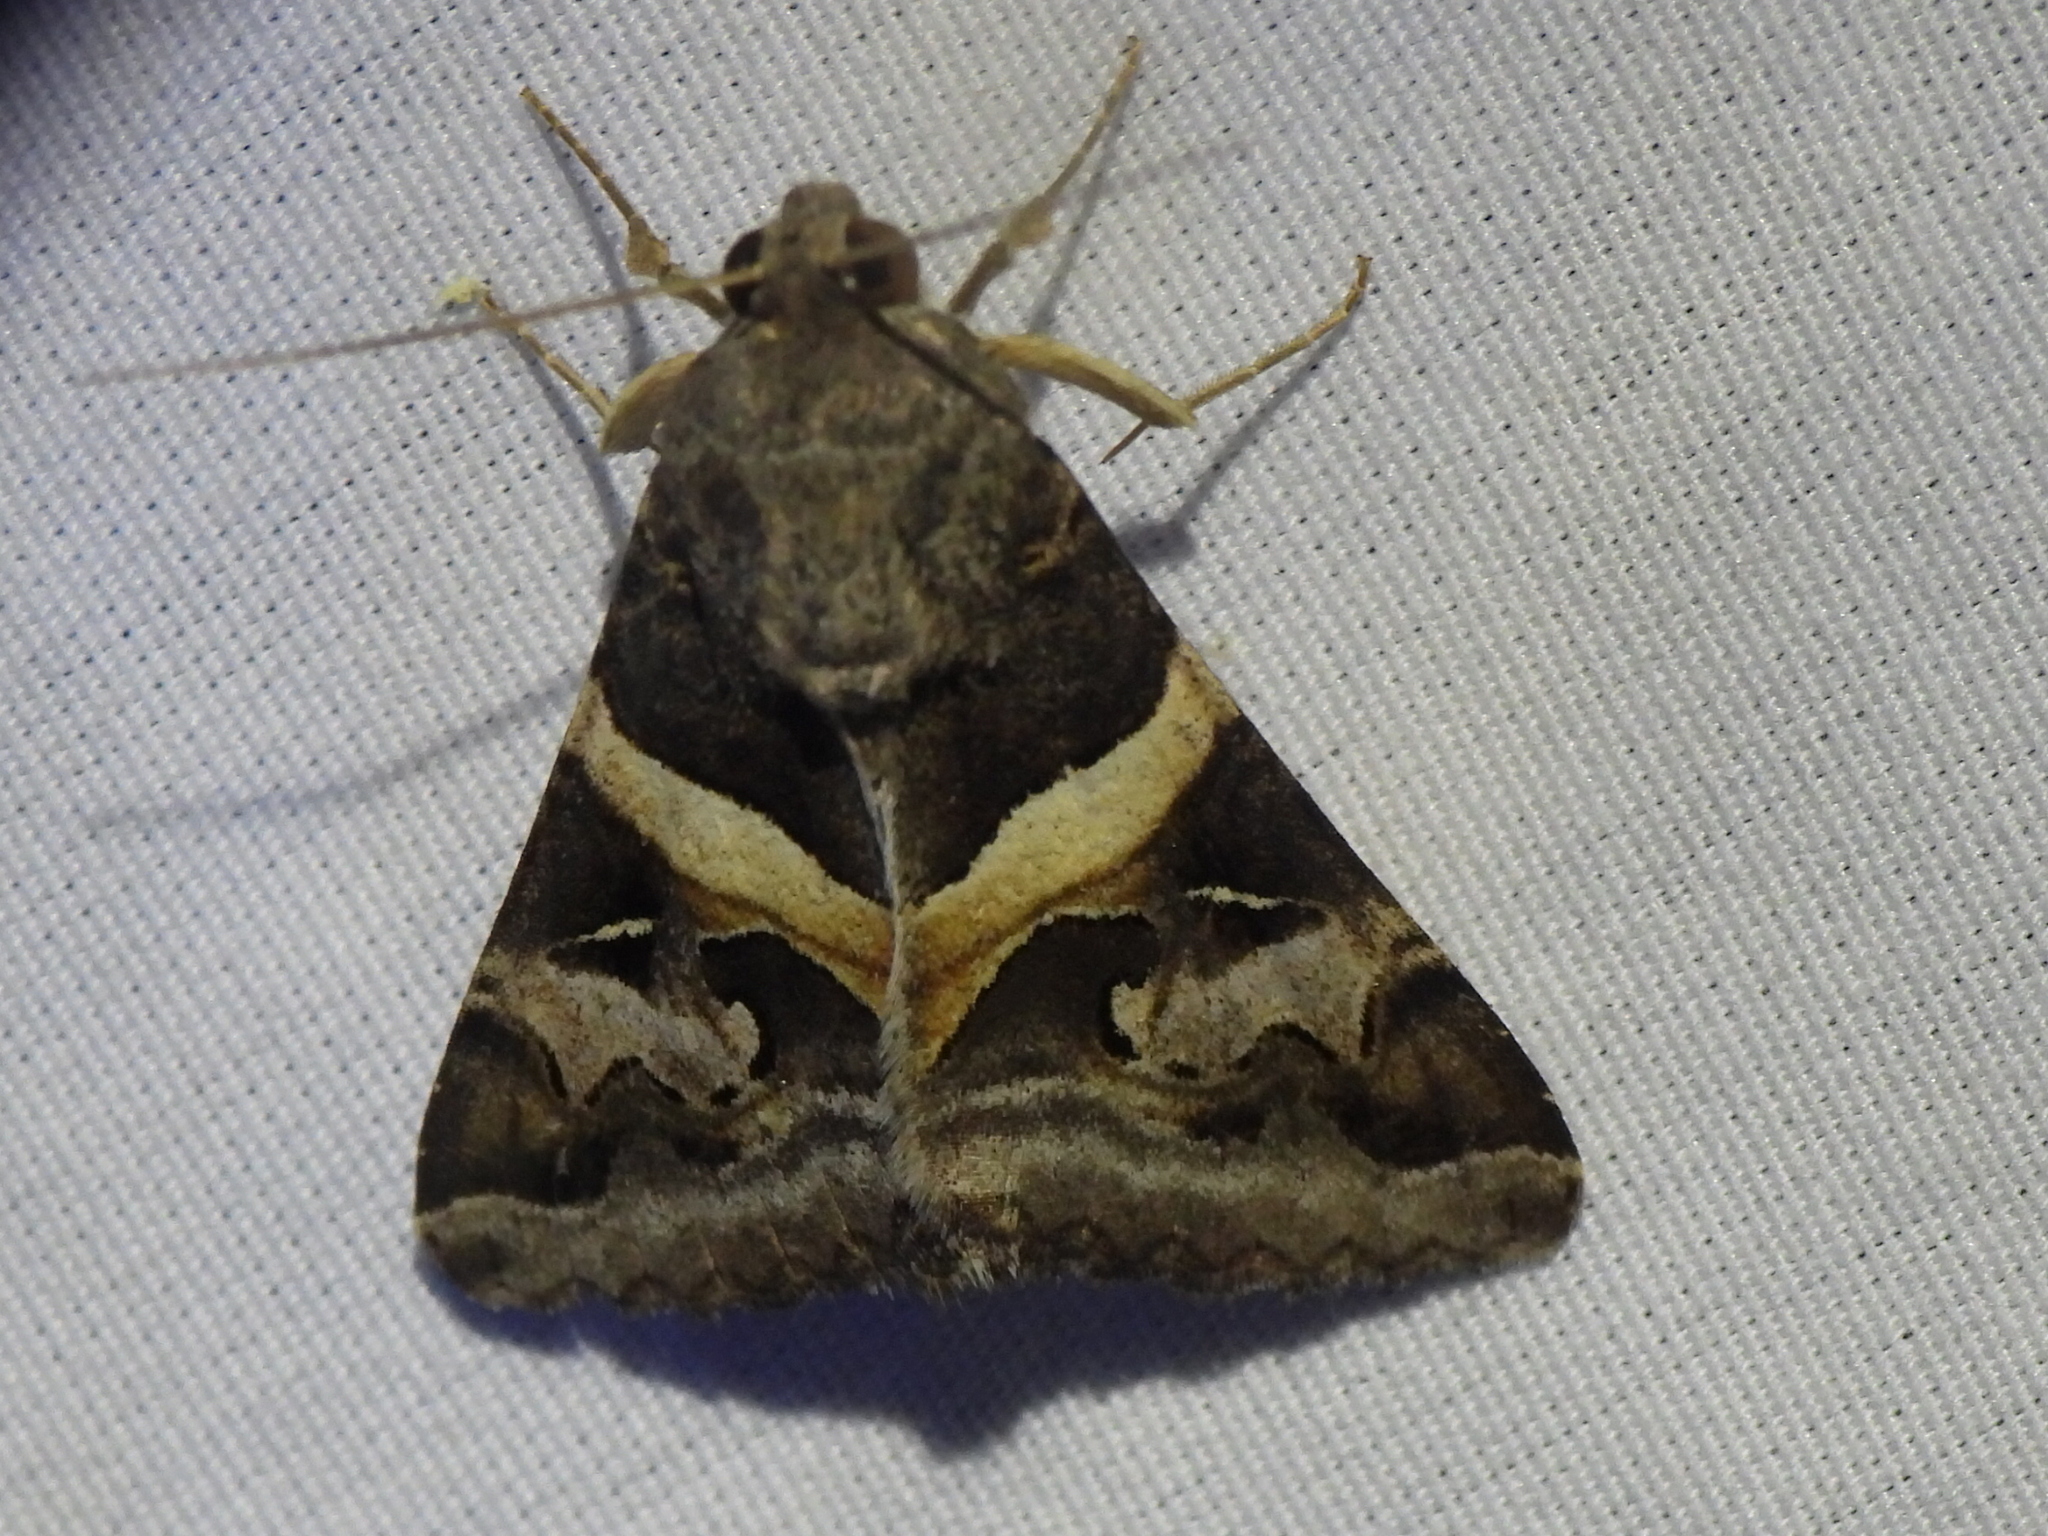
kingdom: Animalia
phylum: Arthropoda
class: Insecta
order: Lepidoptera
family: Erebidae
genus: Melipotis
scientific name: Melipotis indomita
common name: Moth
